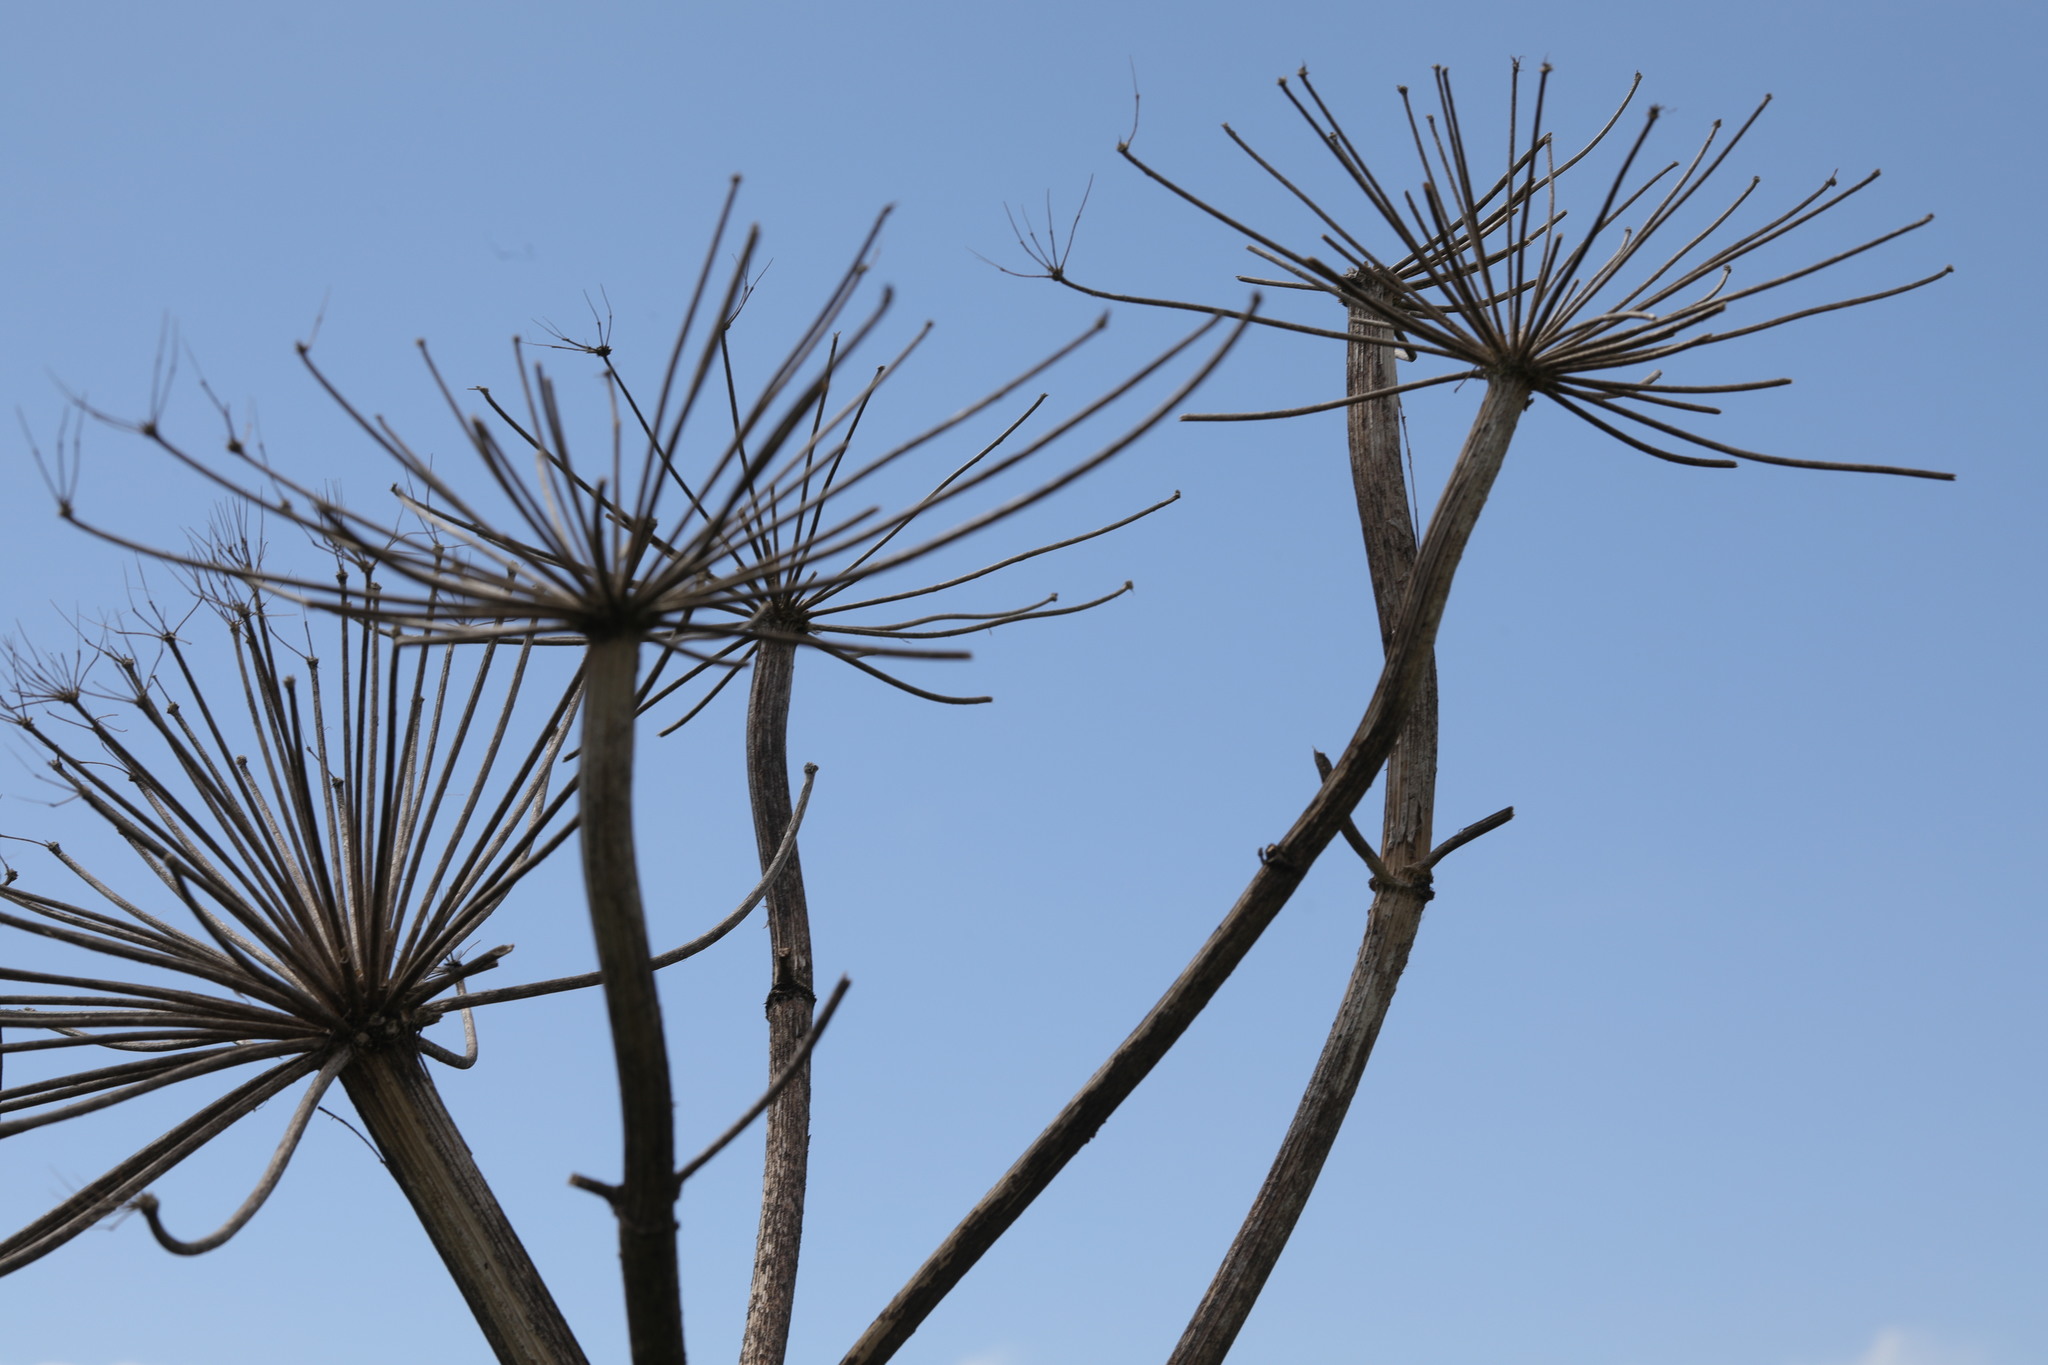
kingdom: Plantae
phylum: Tracheophyta
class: Magnoliopsida
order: Apiales
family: Apiaceae
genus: Heracleum
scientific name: Heracleum mantegazzianum
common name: Giant hogweed
